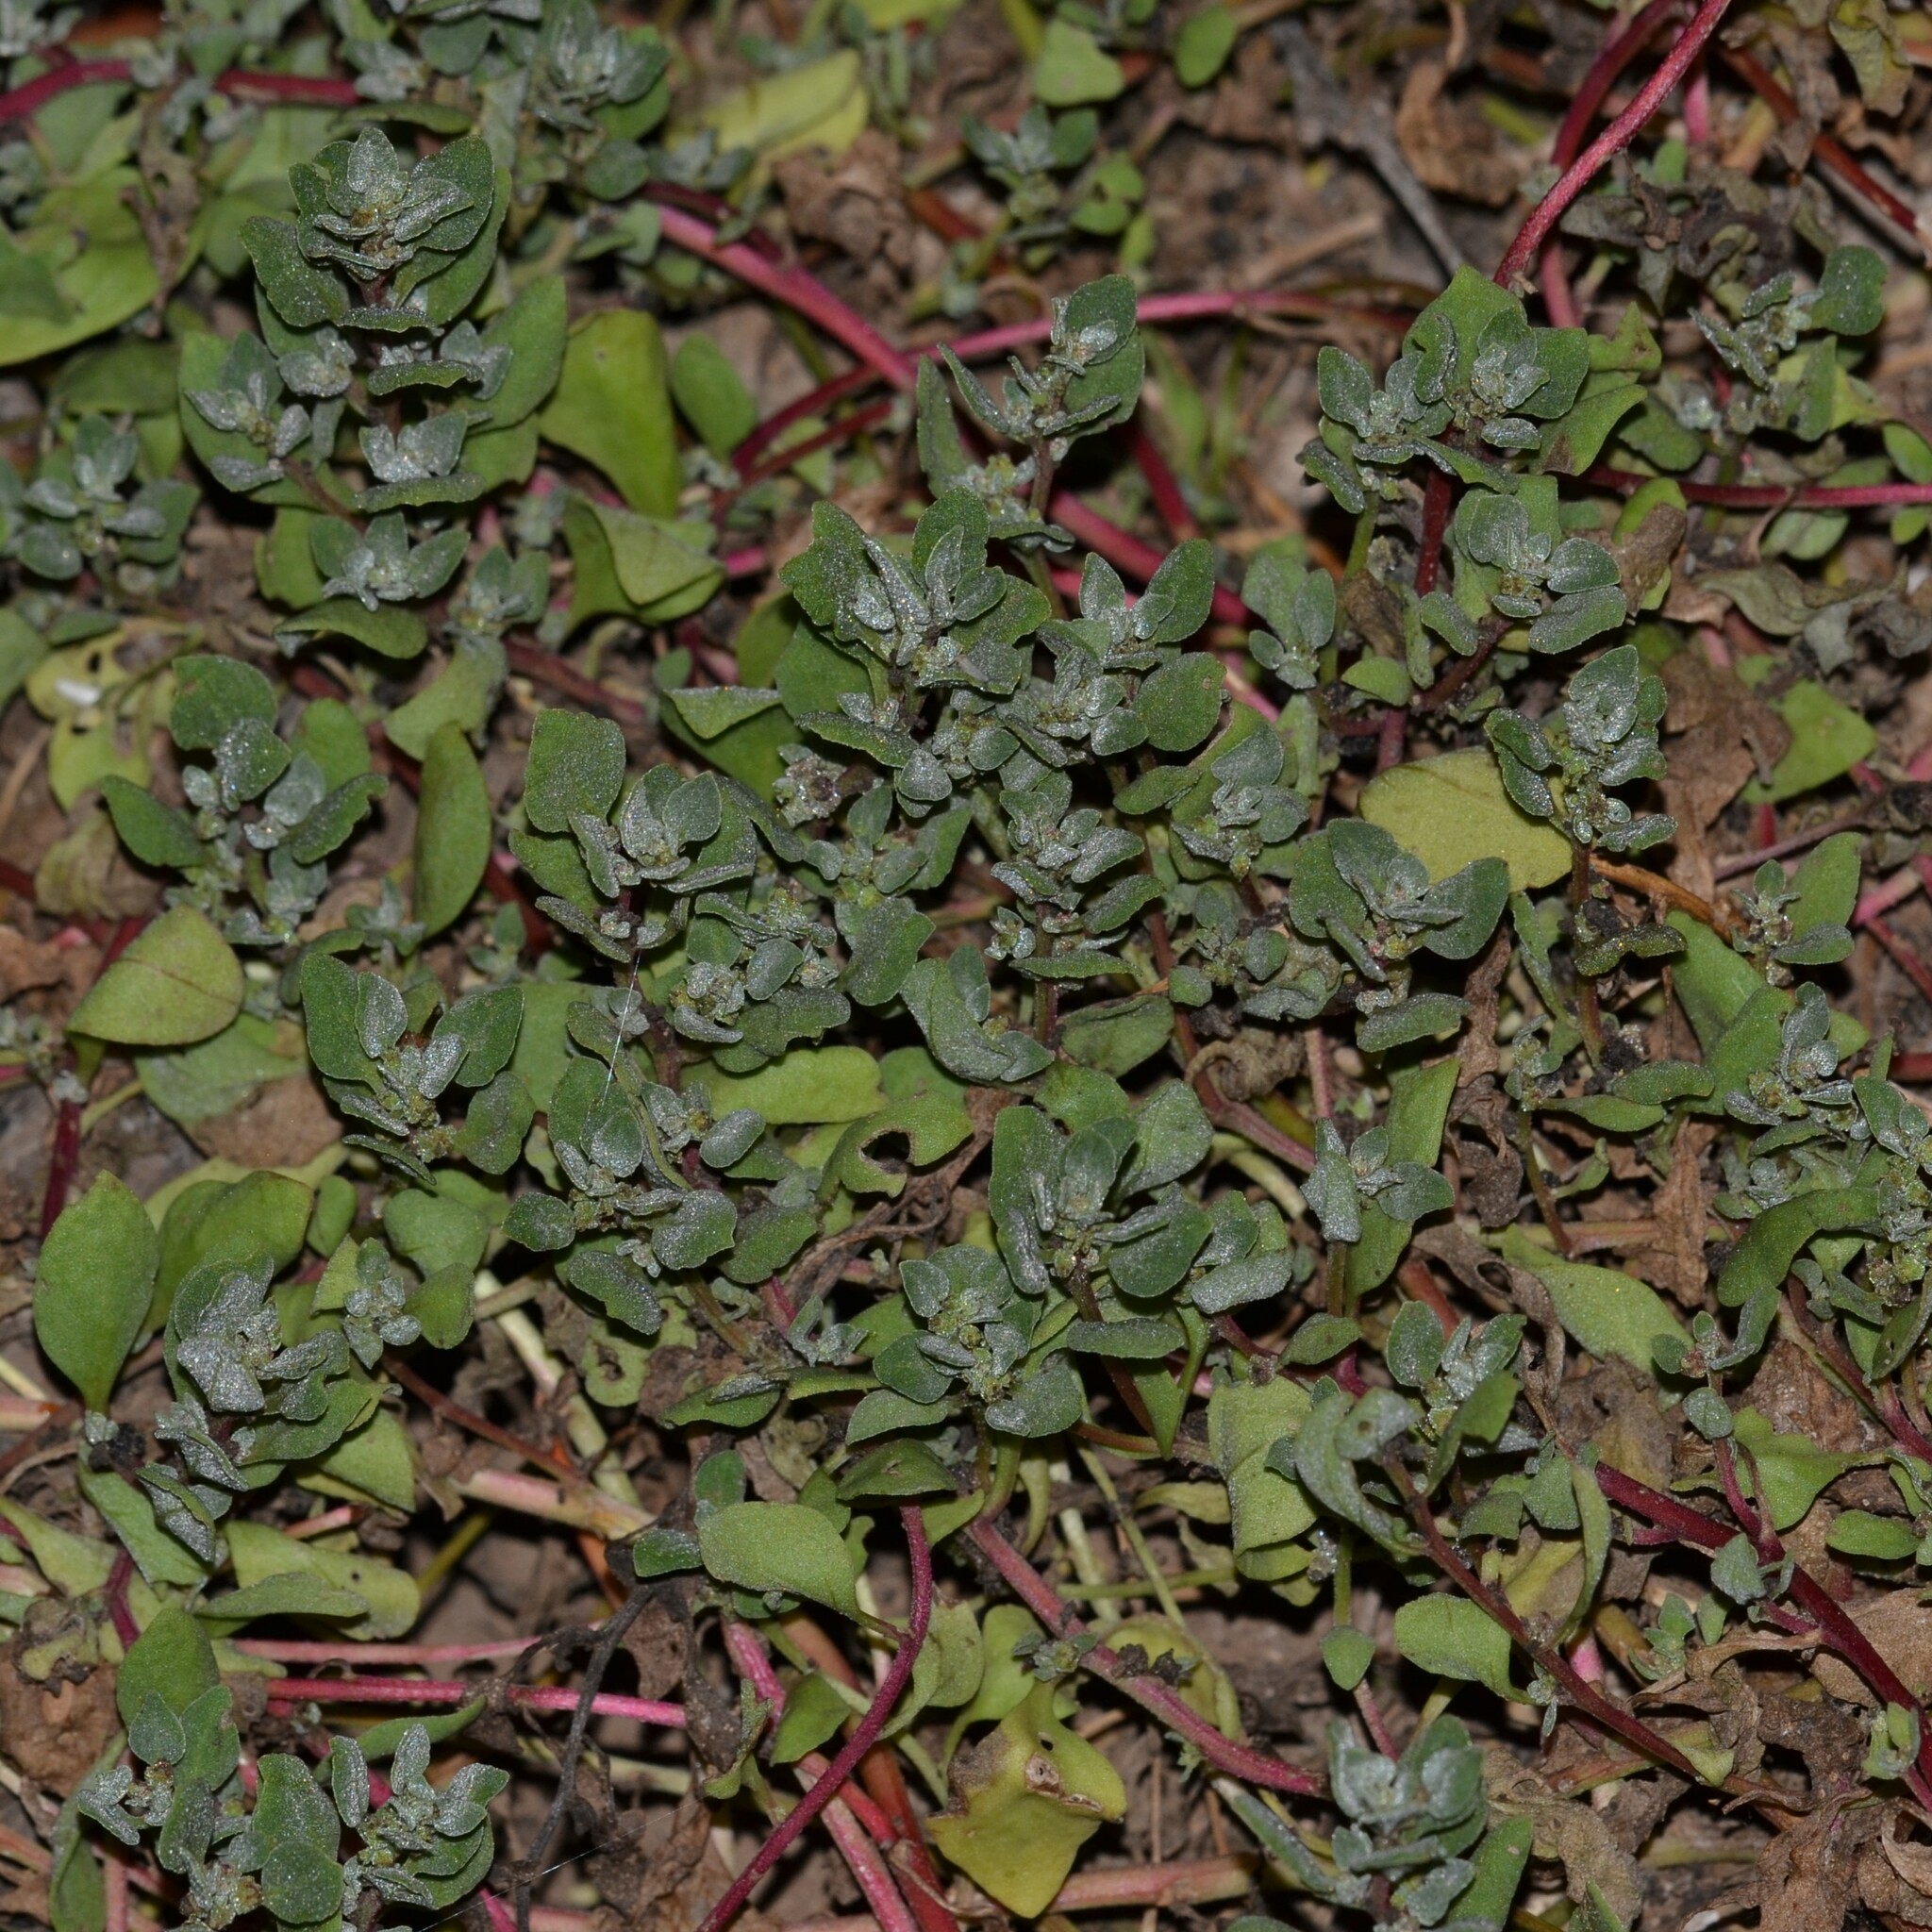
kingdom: Plantae
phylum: Tracheophyta
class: Magnoliopsida
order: Caryophyllales
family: Aizoaceae
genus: Tetragonia
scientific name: Tetragonia echinata
